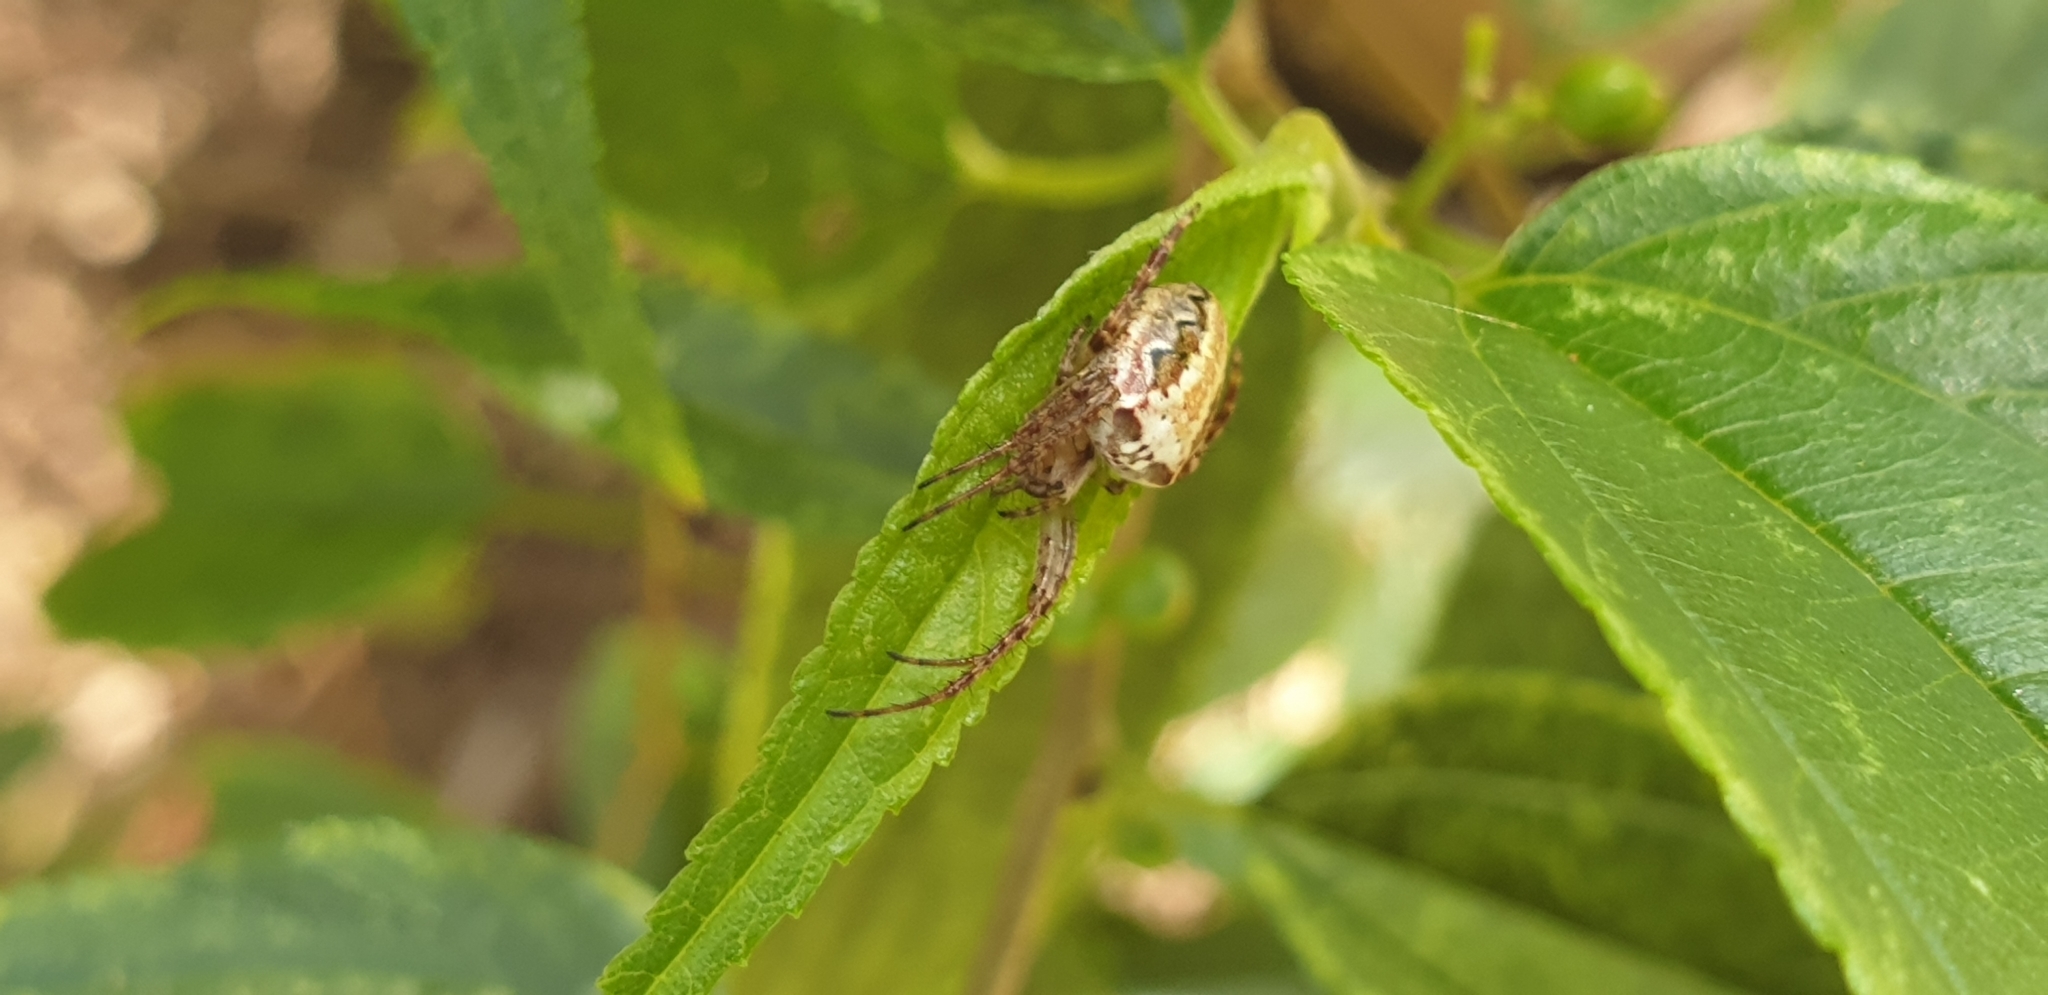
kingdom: Animalia
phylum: Arthropoda
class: Arachnida
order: Araneae
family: Araneidae
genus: Plebs
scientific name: Plebs eburnus
